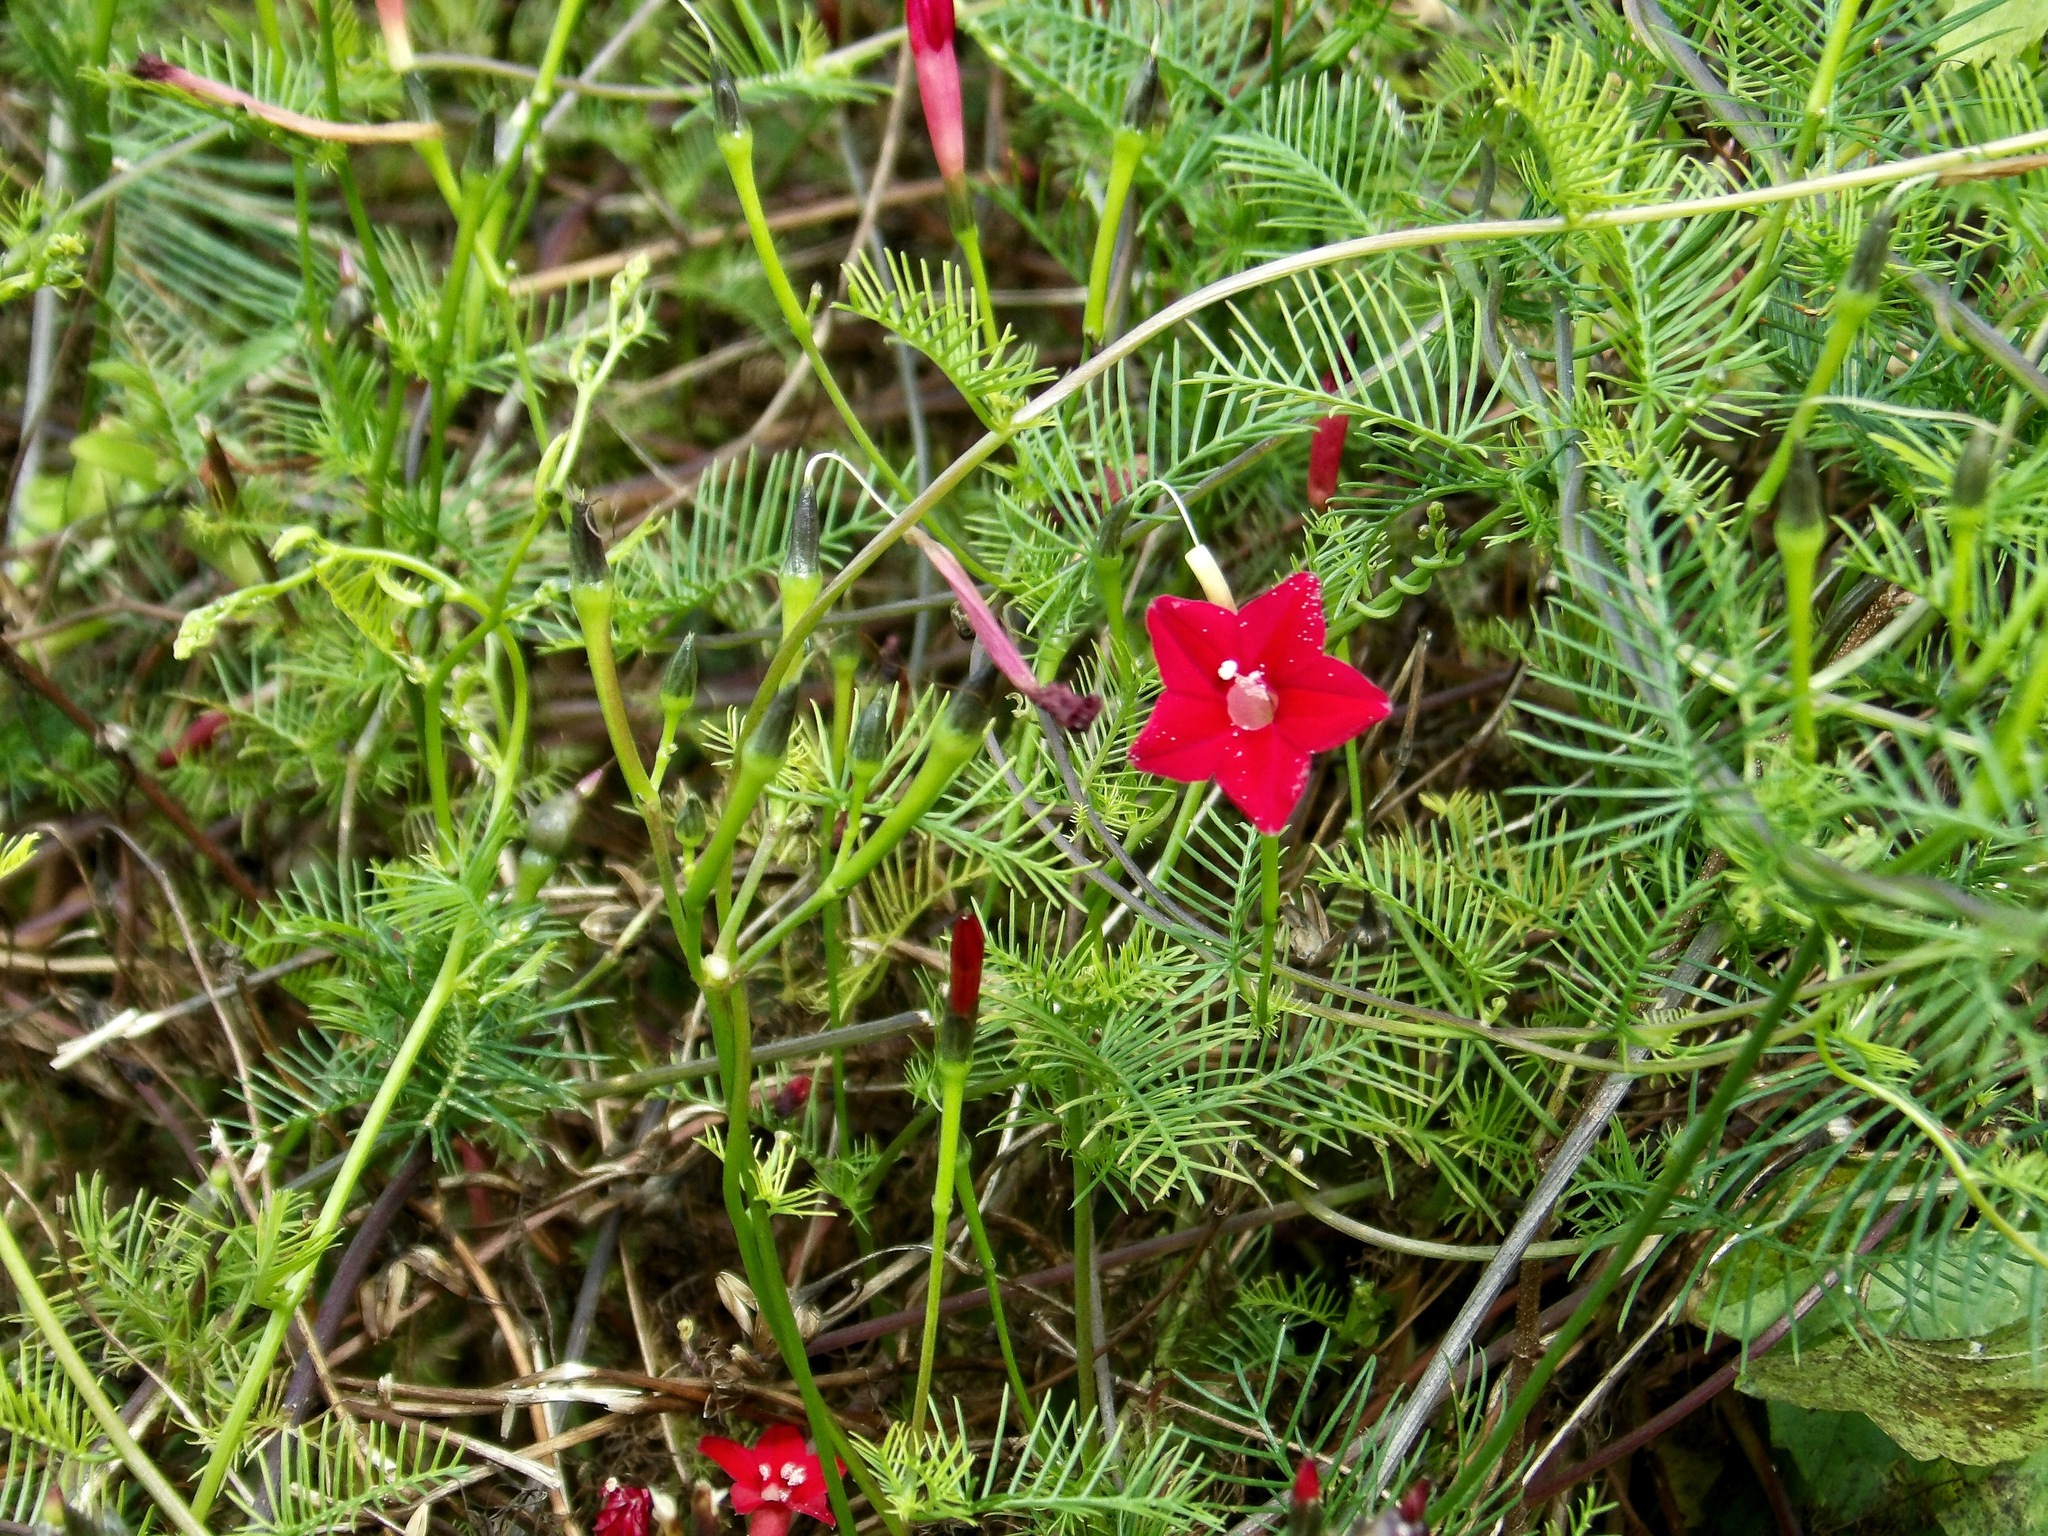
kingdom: Plantae
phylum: Tracheophyta
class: Magnoliopsida
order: Solanales
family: Convolvulaceae
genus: Ipomoea
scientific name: Ipomoea quamoclit
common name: Cypress vine
